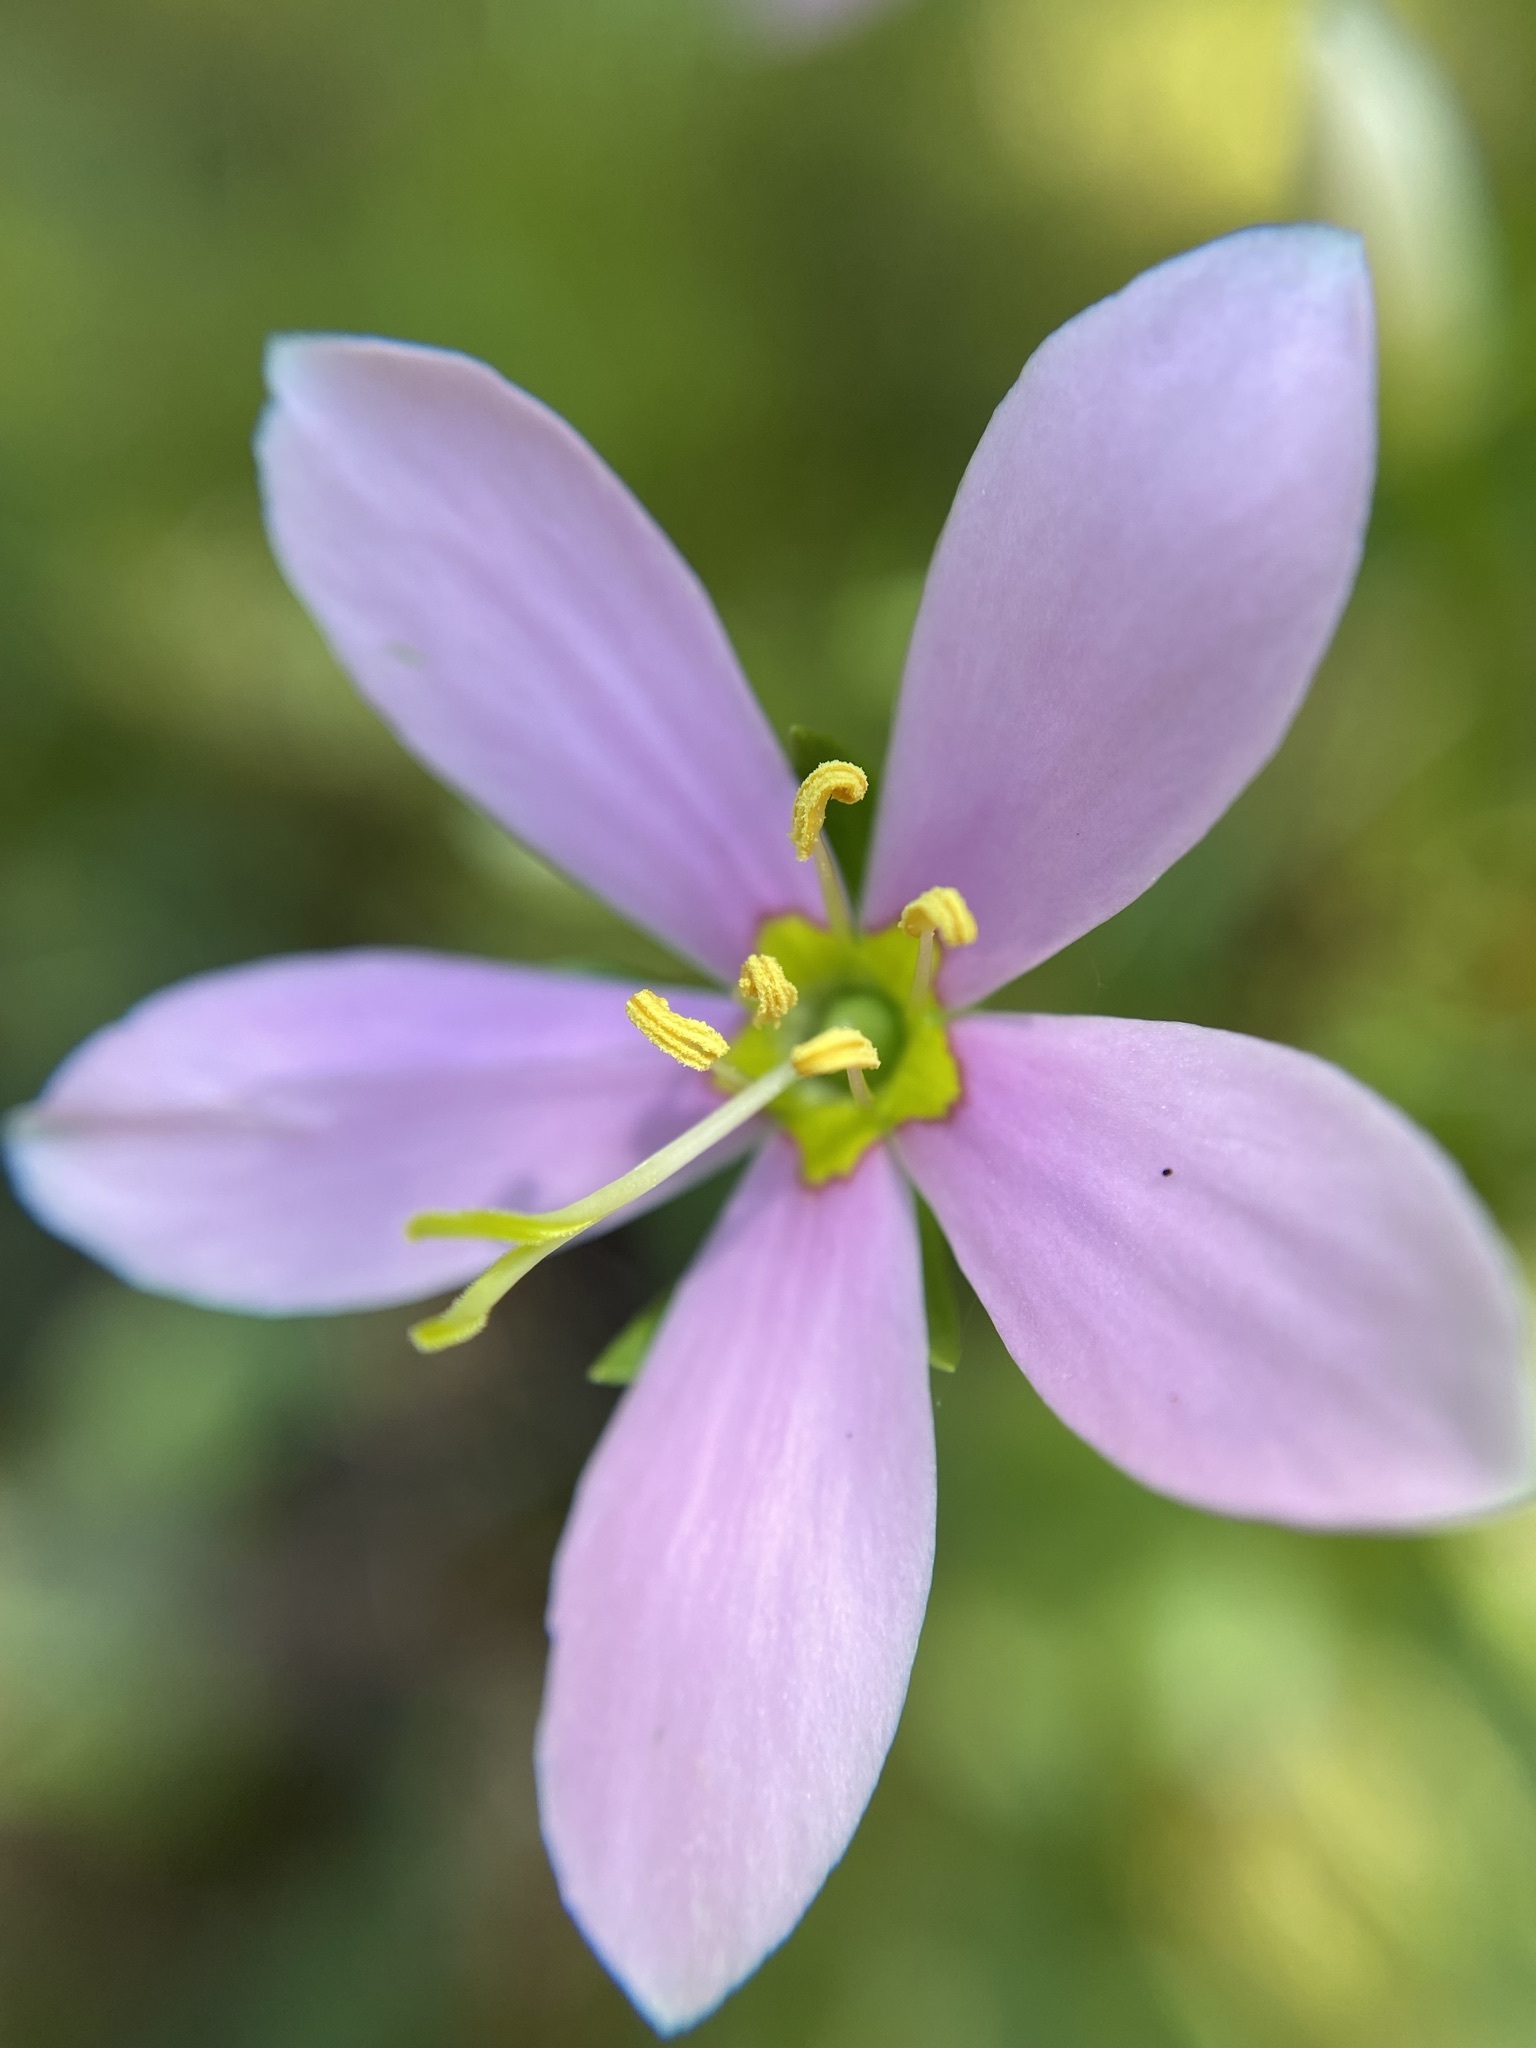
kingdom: Plantae
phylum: Tracheophyta
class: Magnoliopsida
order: Gentianales
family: Gentianaceae
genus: Sabatia
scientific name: Sabatia angularis
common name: Rose-pink
